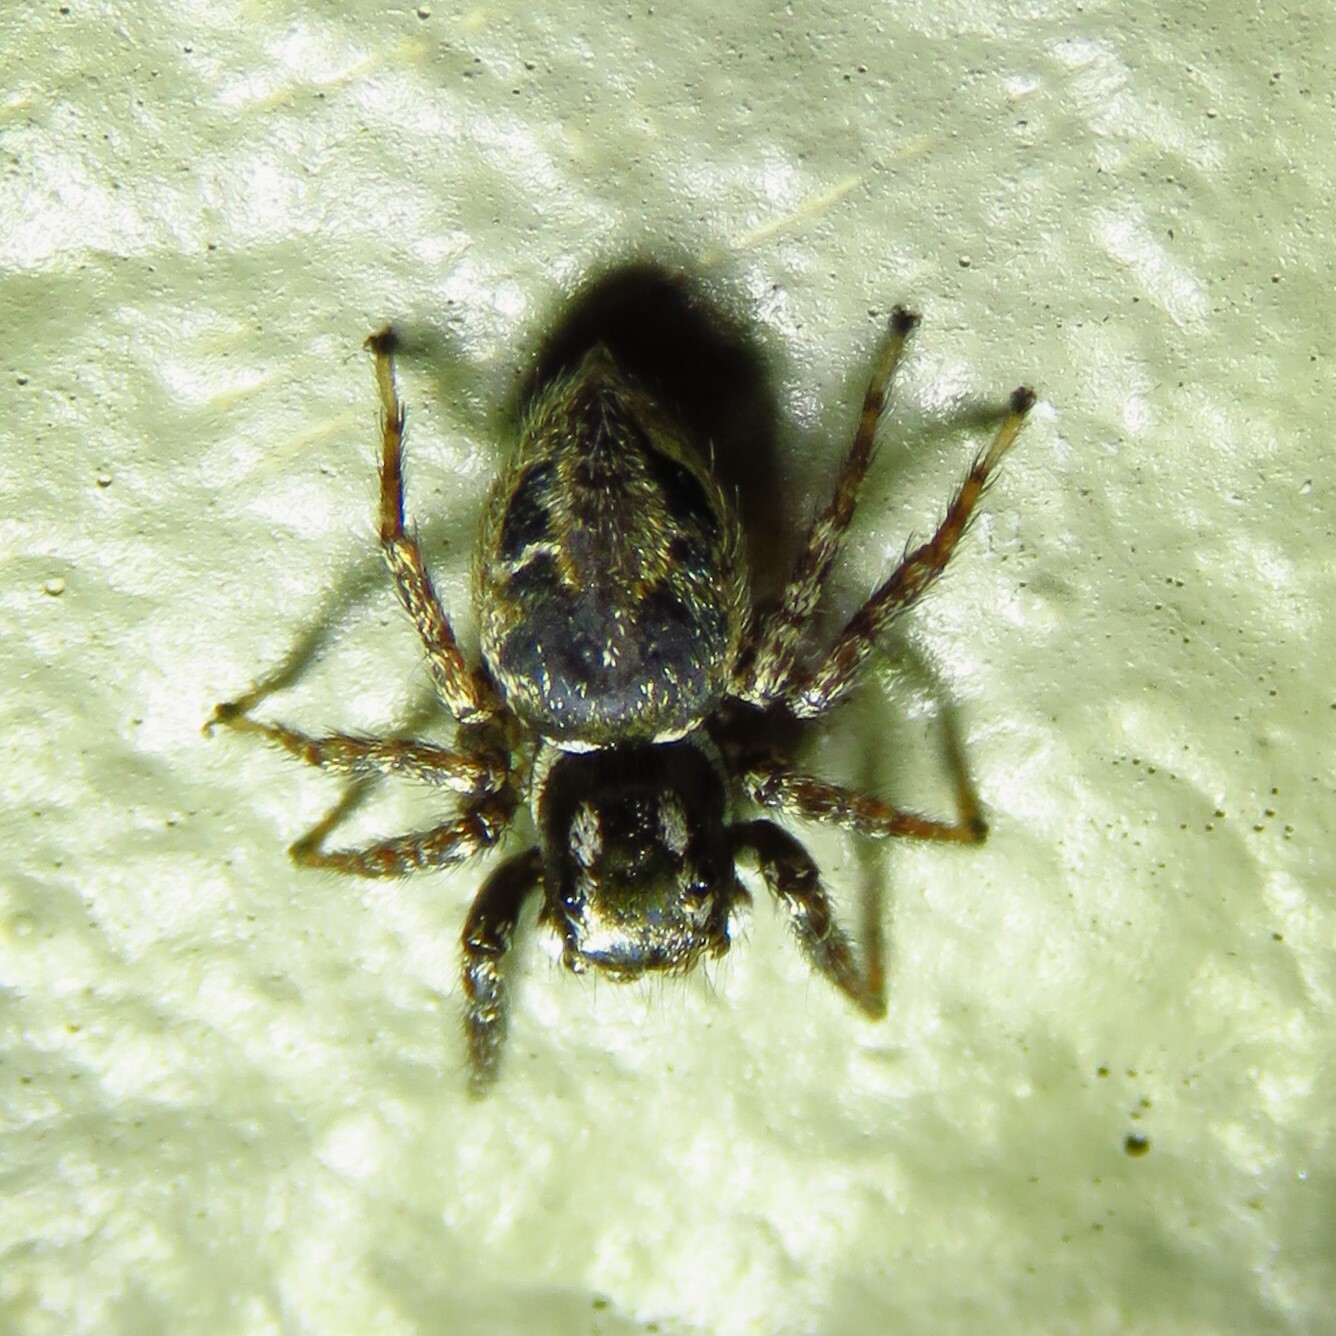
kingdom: Animalia
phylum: Arthropoda
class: Arachnida
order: Araneae
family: Salticidae
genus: Anasaitis
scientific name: Anasaitis canosa
